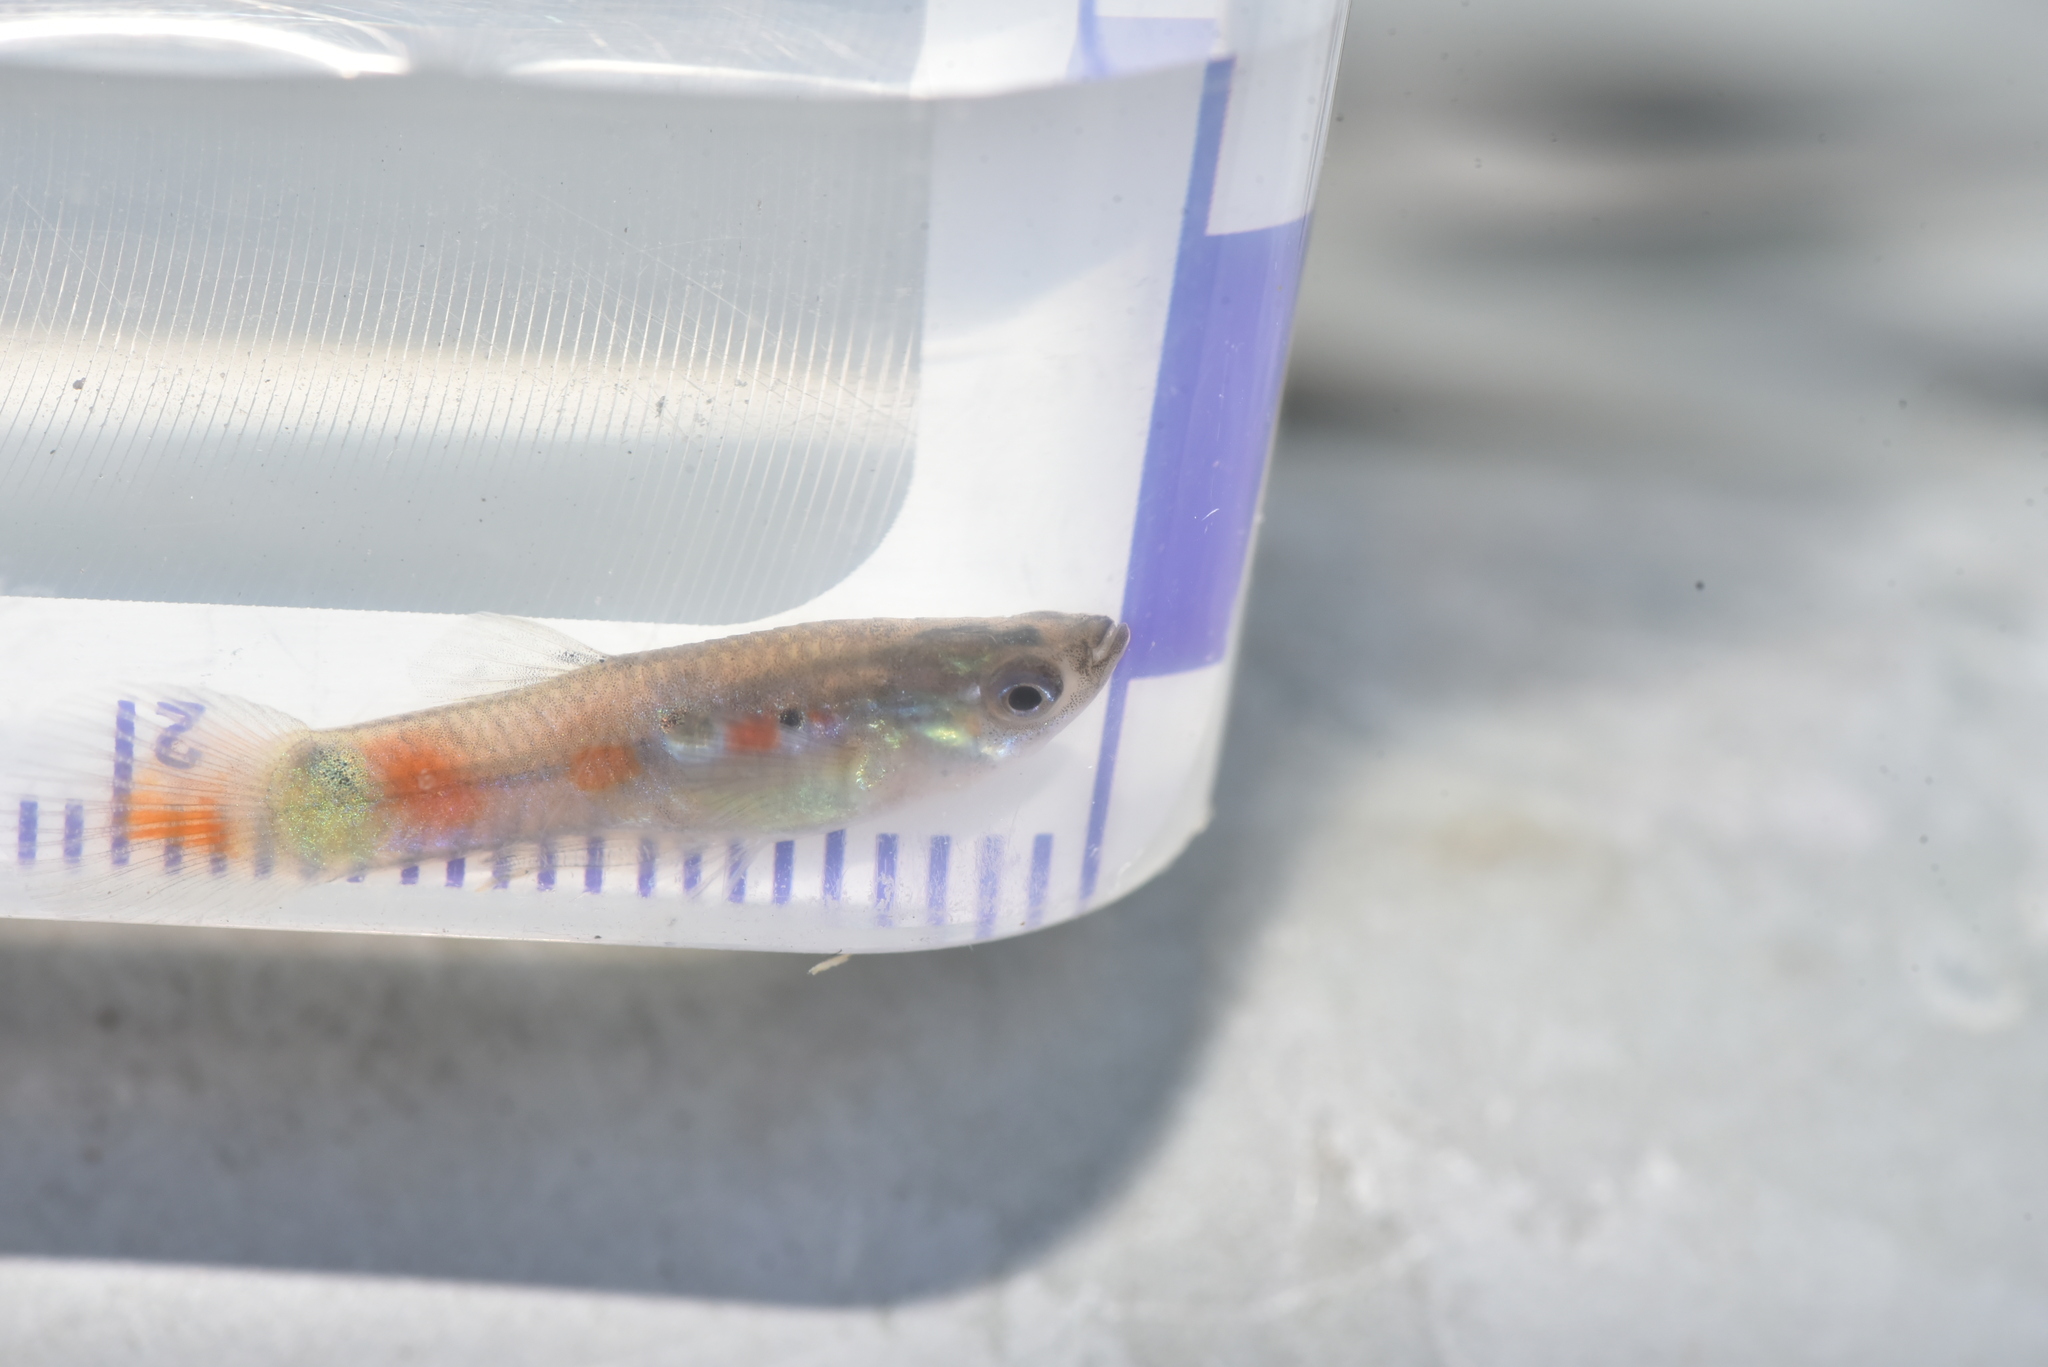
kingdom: Animalia
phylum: Chordata
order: Cyprinodontiformes
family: Poeciliidae
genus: Poecilia
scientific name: Poecilia reticulata
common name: Guppy
